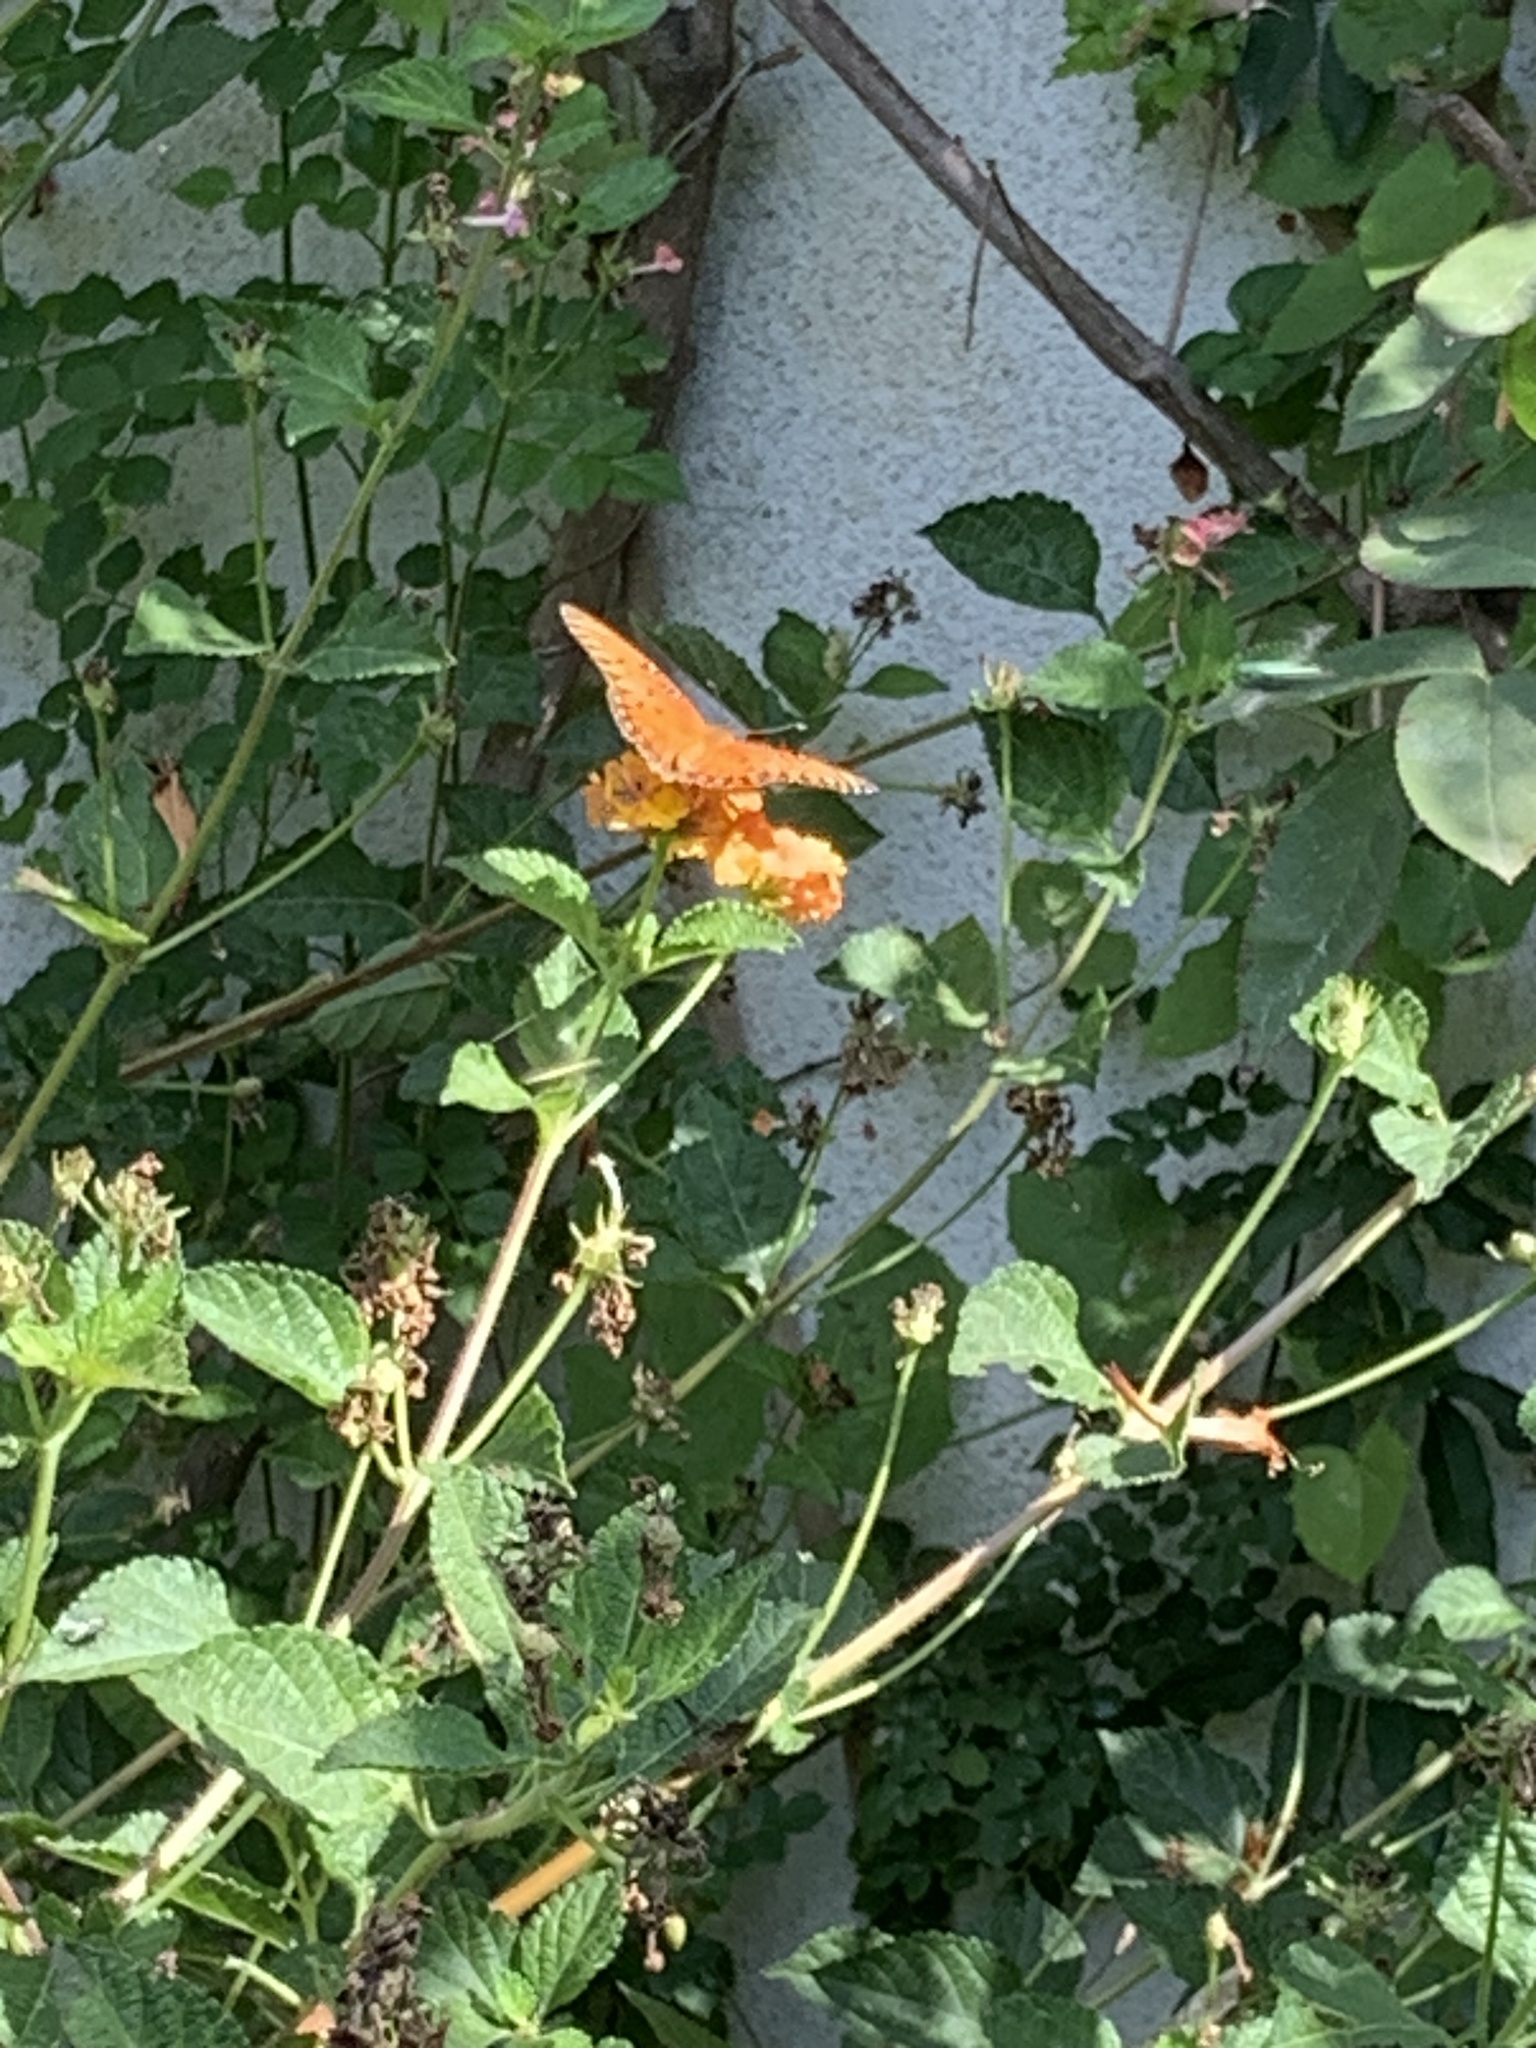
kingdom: Animalia
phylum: Arthropoda
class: Insecta
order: Lepidoptera
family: Nymphalidae
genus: Dione
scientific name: Dione vanillae
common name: Gulf fritillary
